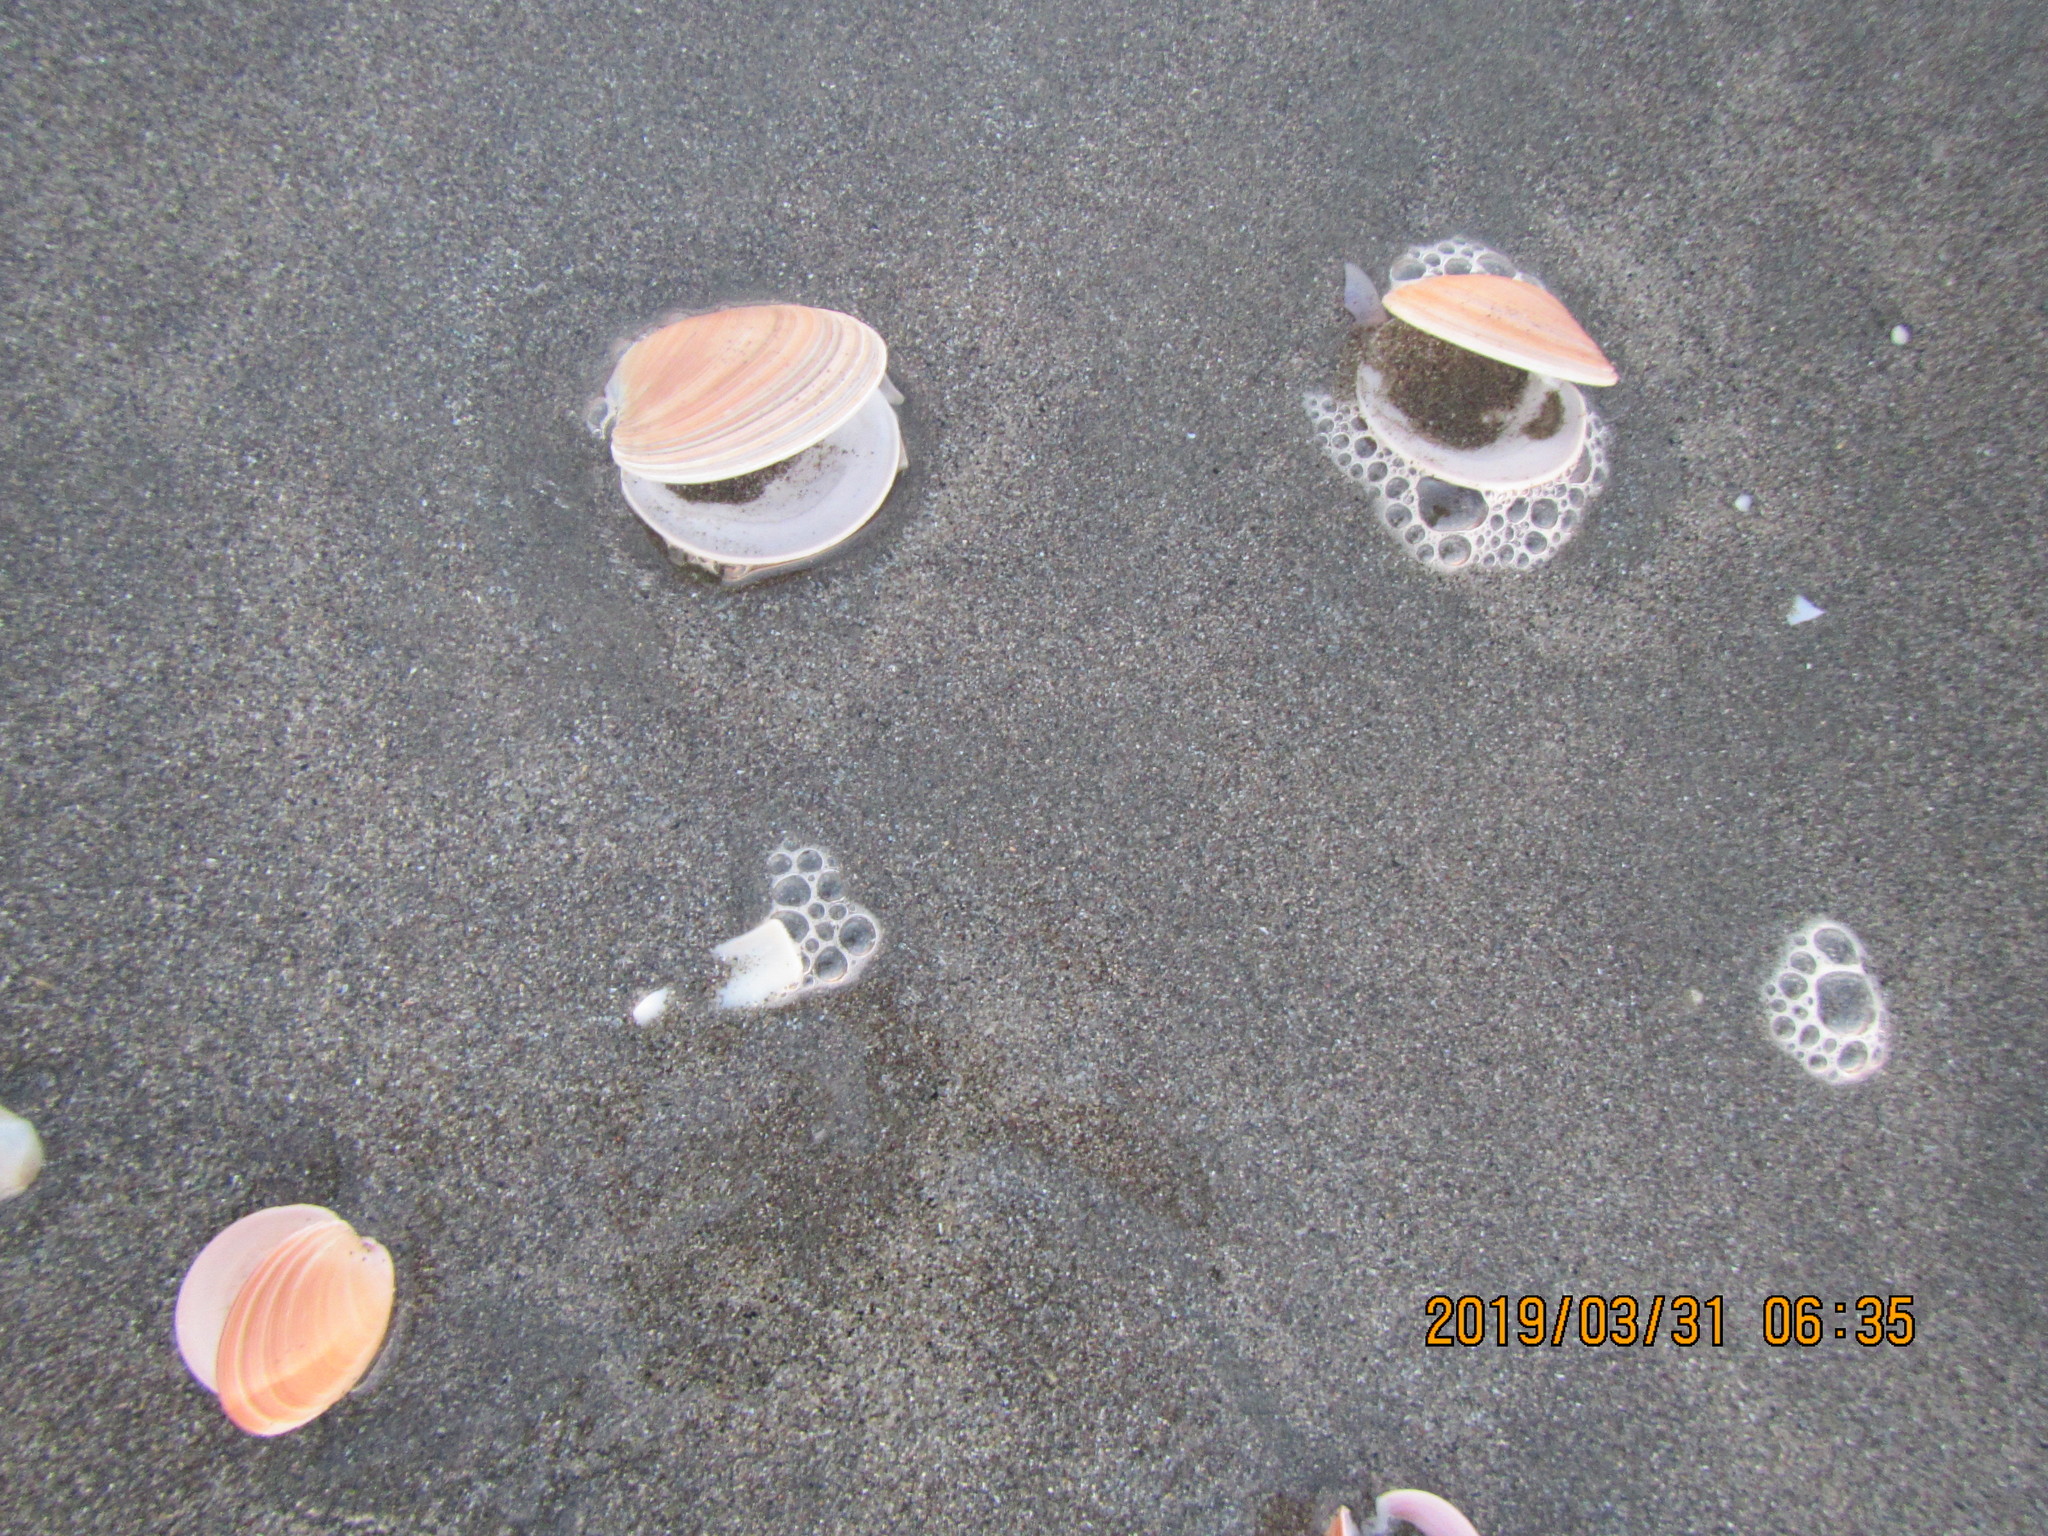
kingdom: Animalia
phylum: Mollusca
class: Bivalvia
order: Venerida
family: Veneridae
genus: Dosinia
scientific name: Dosinia anus
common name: Old-woman dosinia
